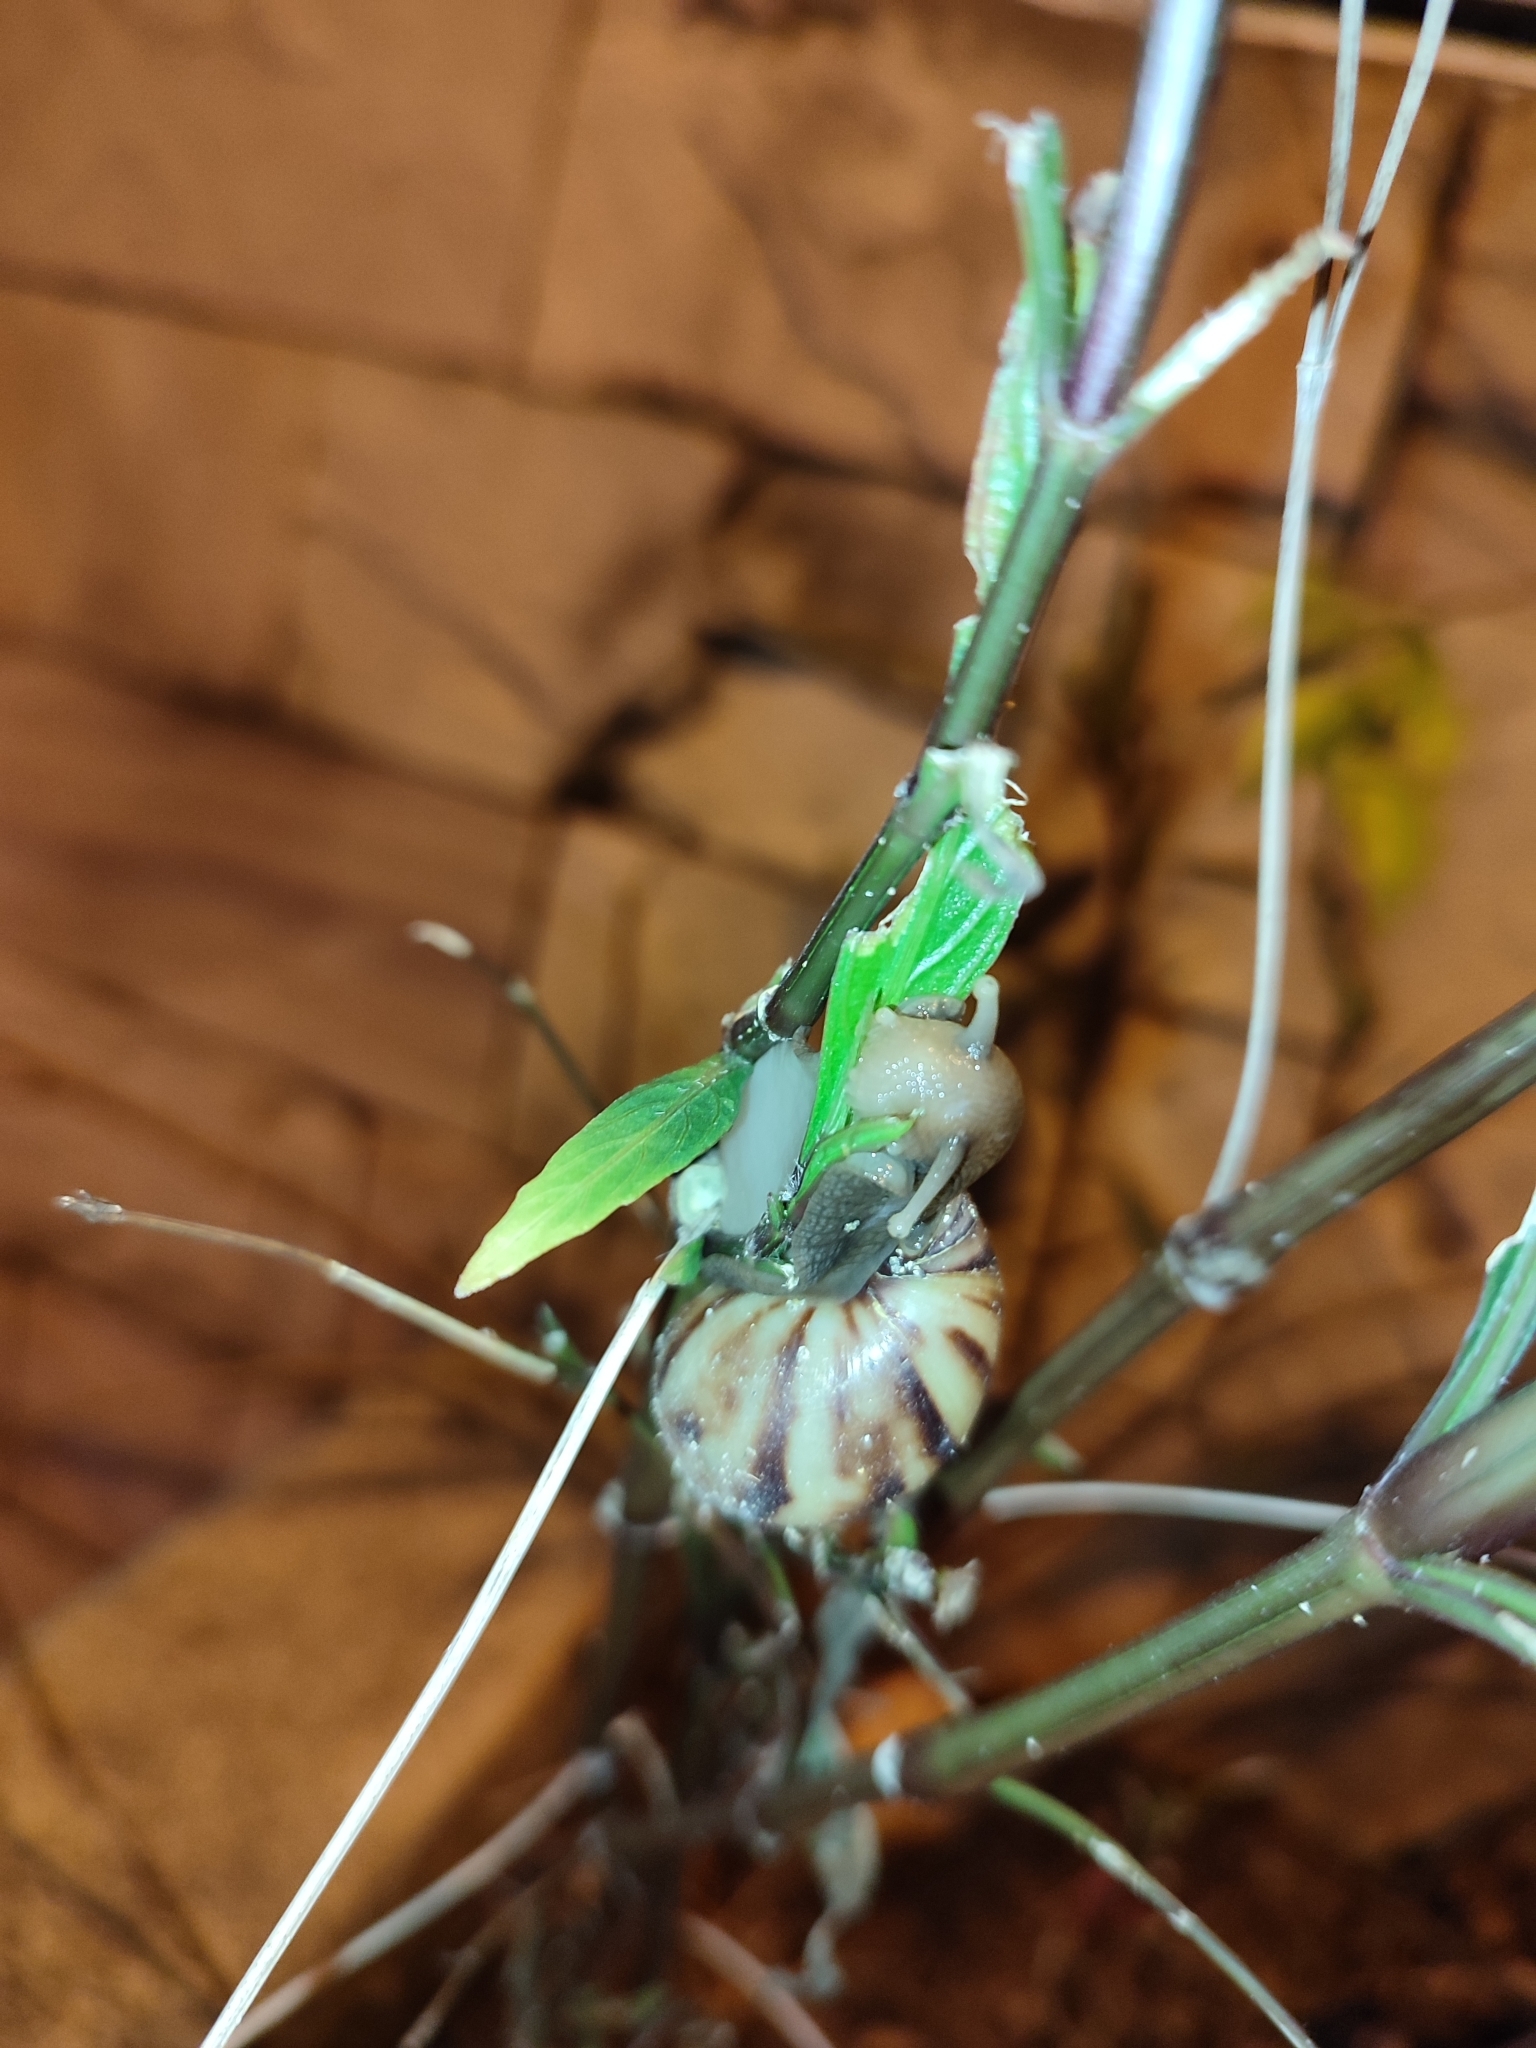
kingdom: Animalia
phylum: Mollusca
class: Gastropoda
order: Stylommatophora
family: Achatinidae
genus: Lissachatina
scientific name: Lissachatina fulica
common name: Giant african snail
